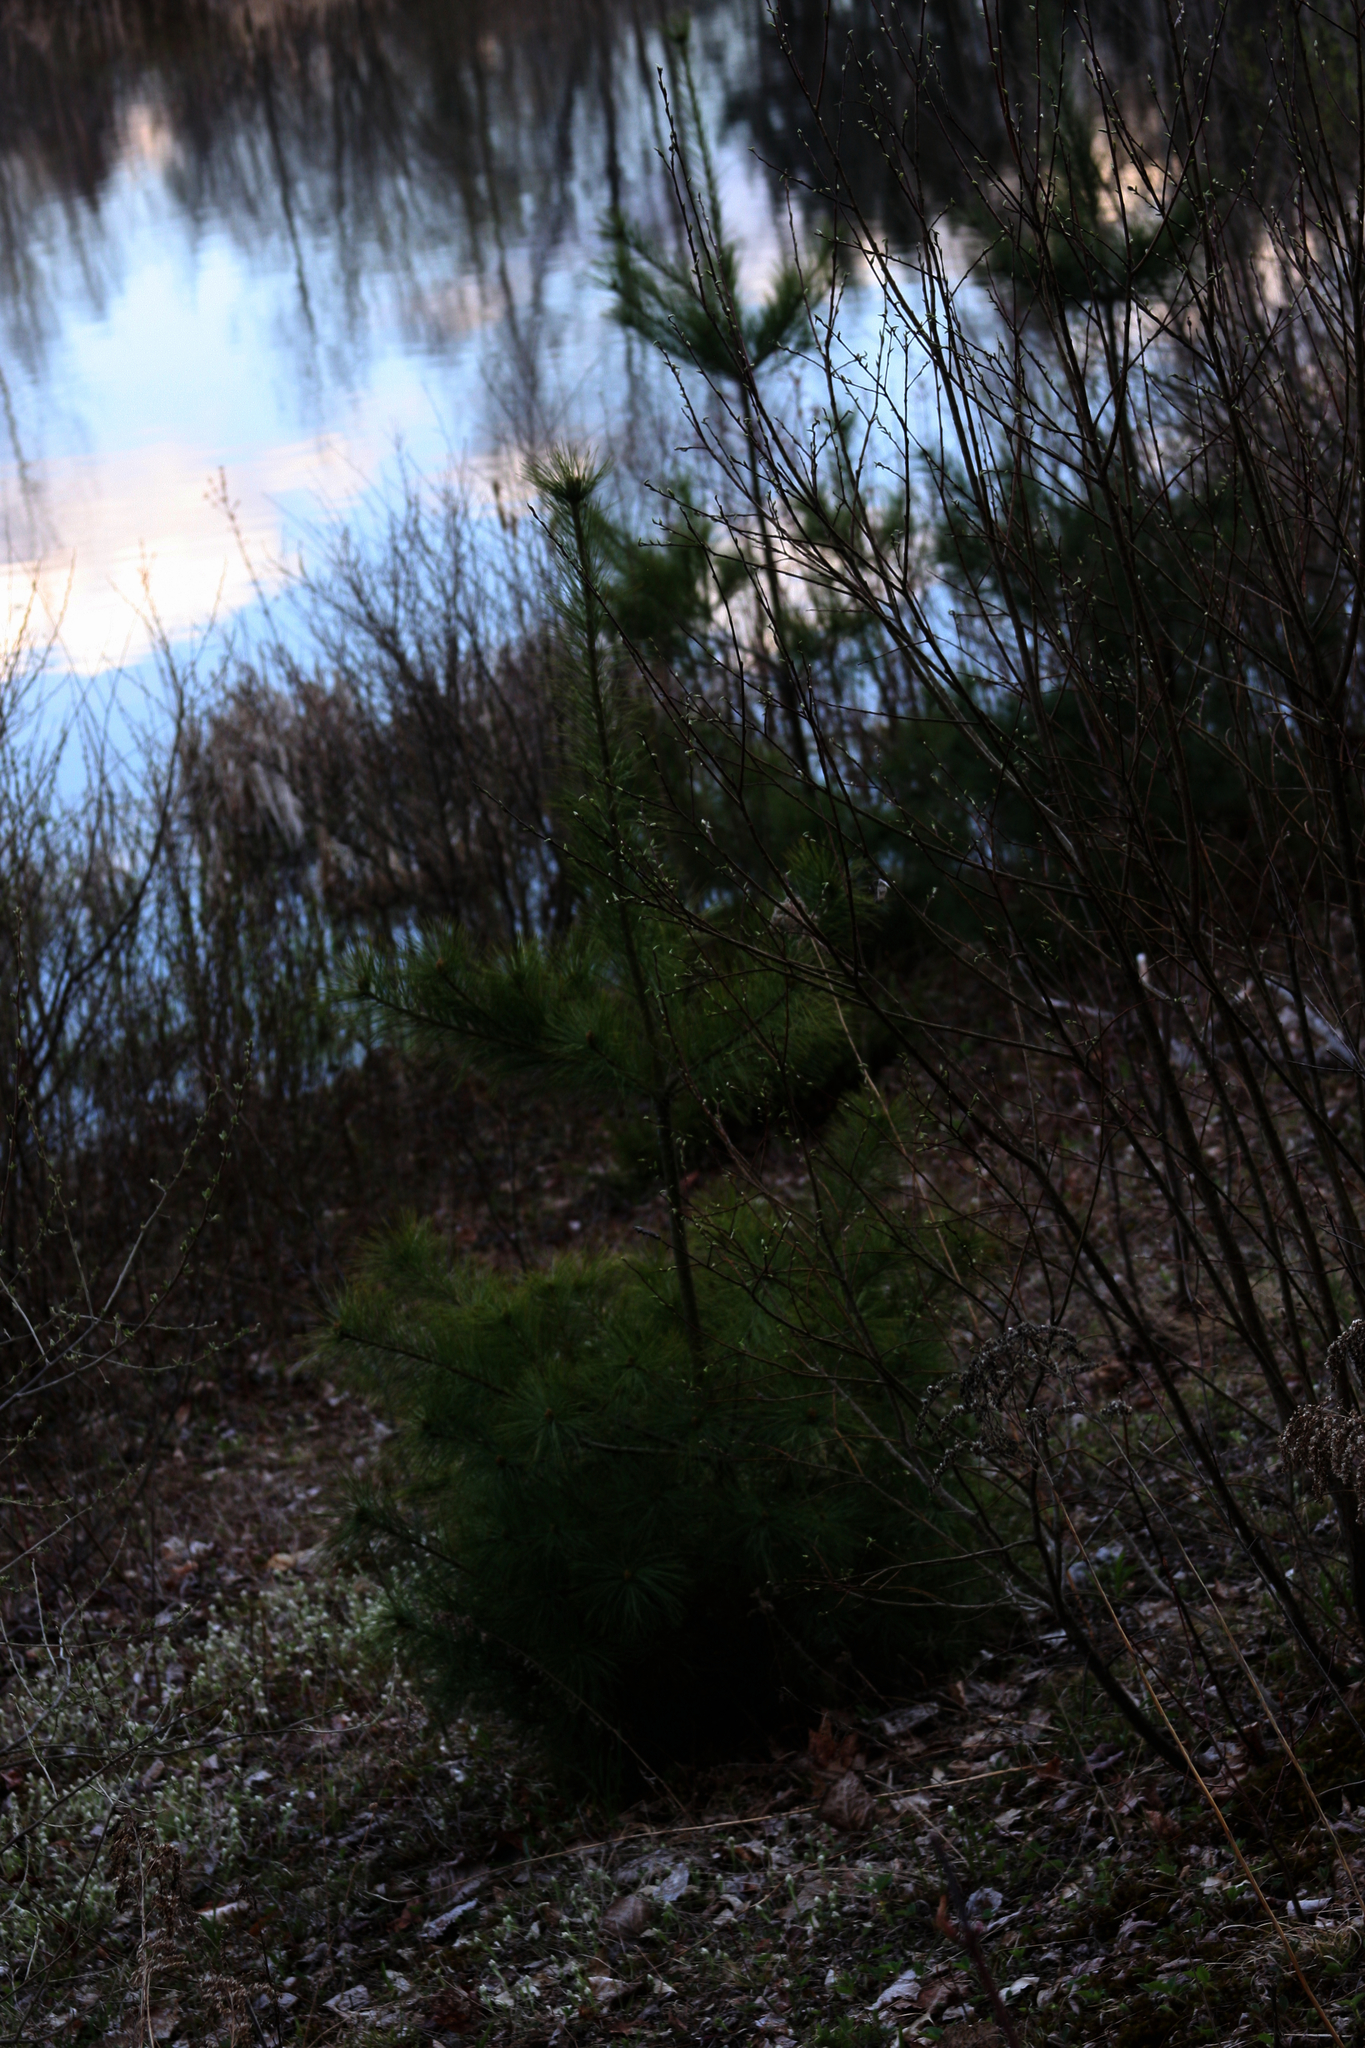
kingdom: Plantae
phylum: Tracheophyta
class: Pinopsida
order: Pinales
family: Pinaceae
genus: Pinus
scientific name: Pinus strobus
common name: Weymouth pine
